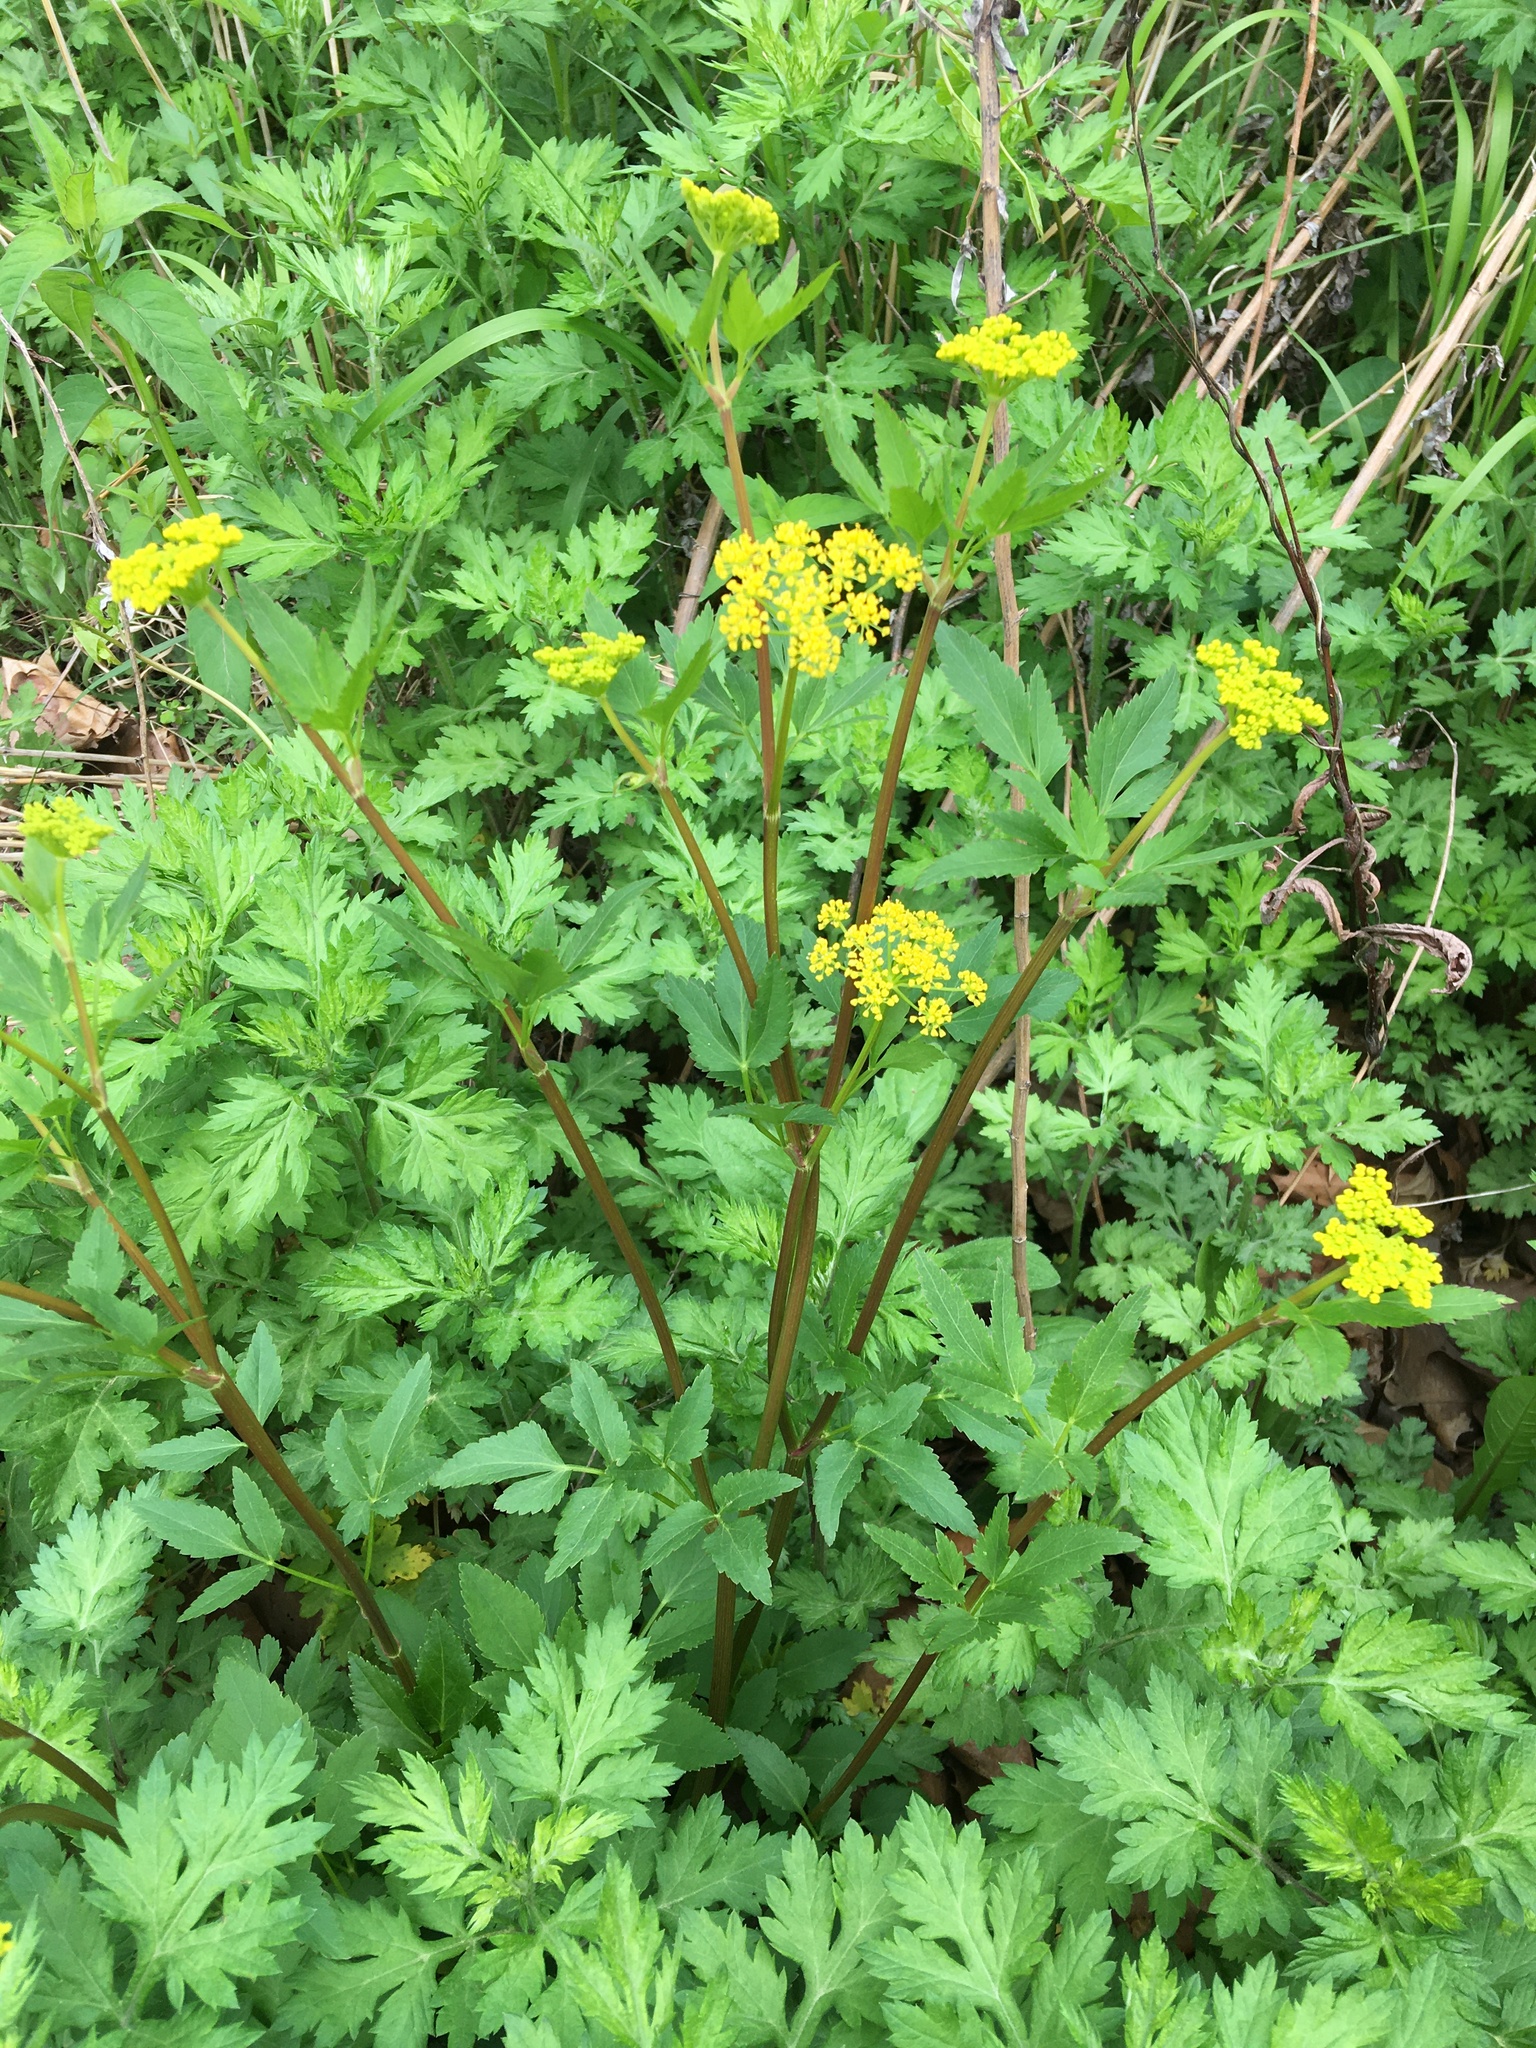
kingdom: Plantae
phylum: Tracheophyta
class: Magnoliopsida
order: Apiales
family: Apiaceae
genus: Zizia
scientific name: Zizia aurea
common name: Golden alexanders
